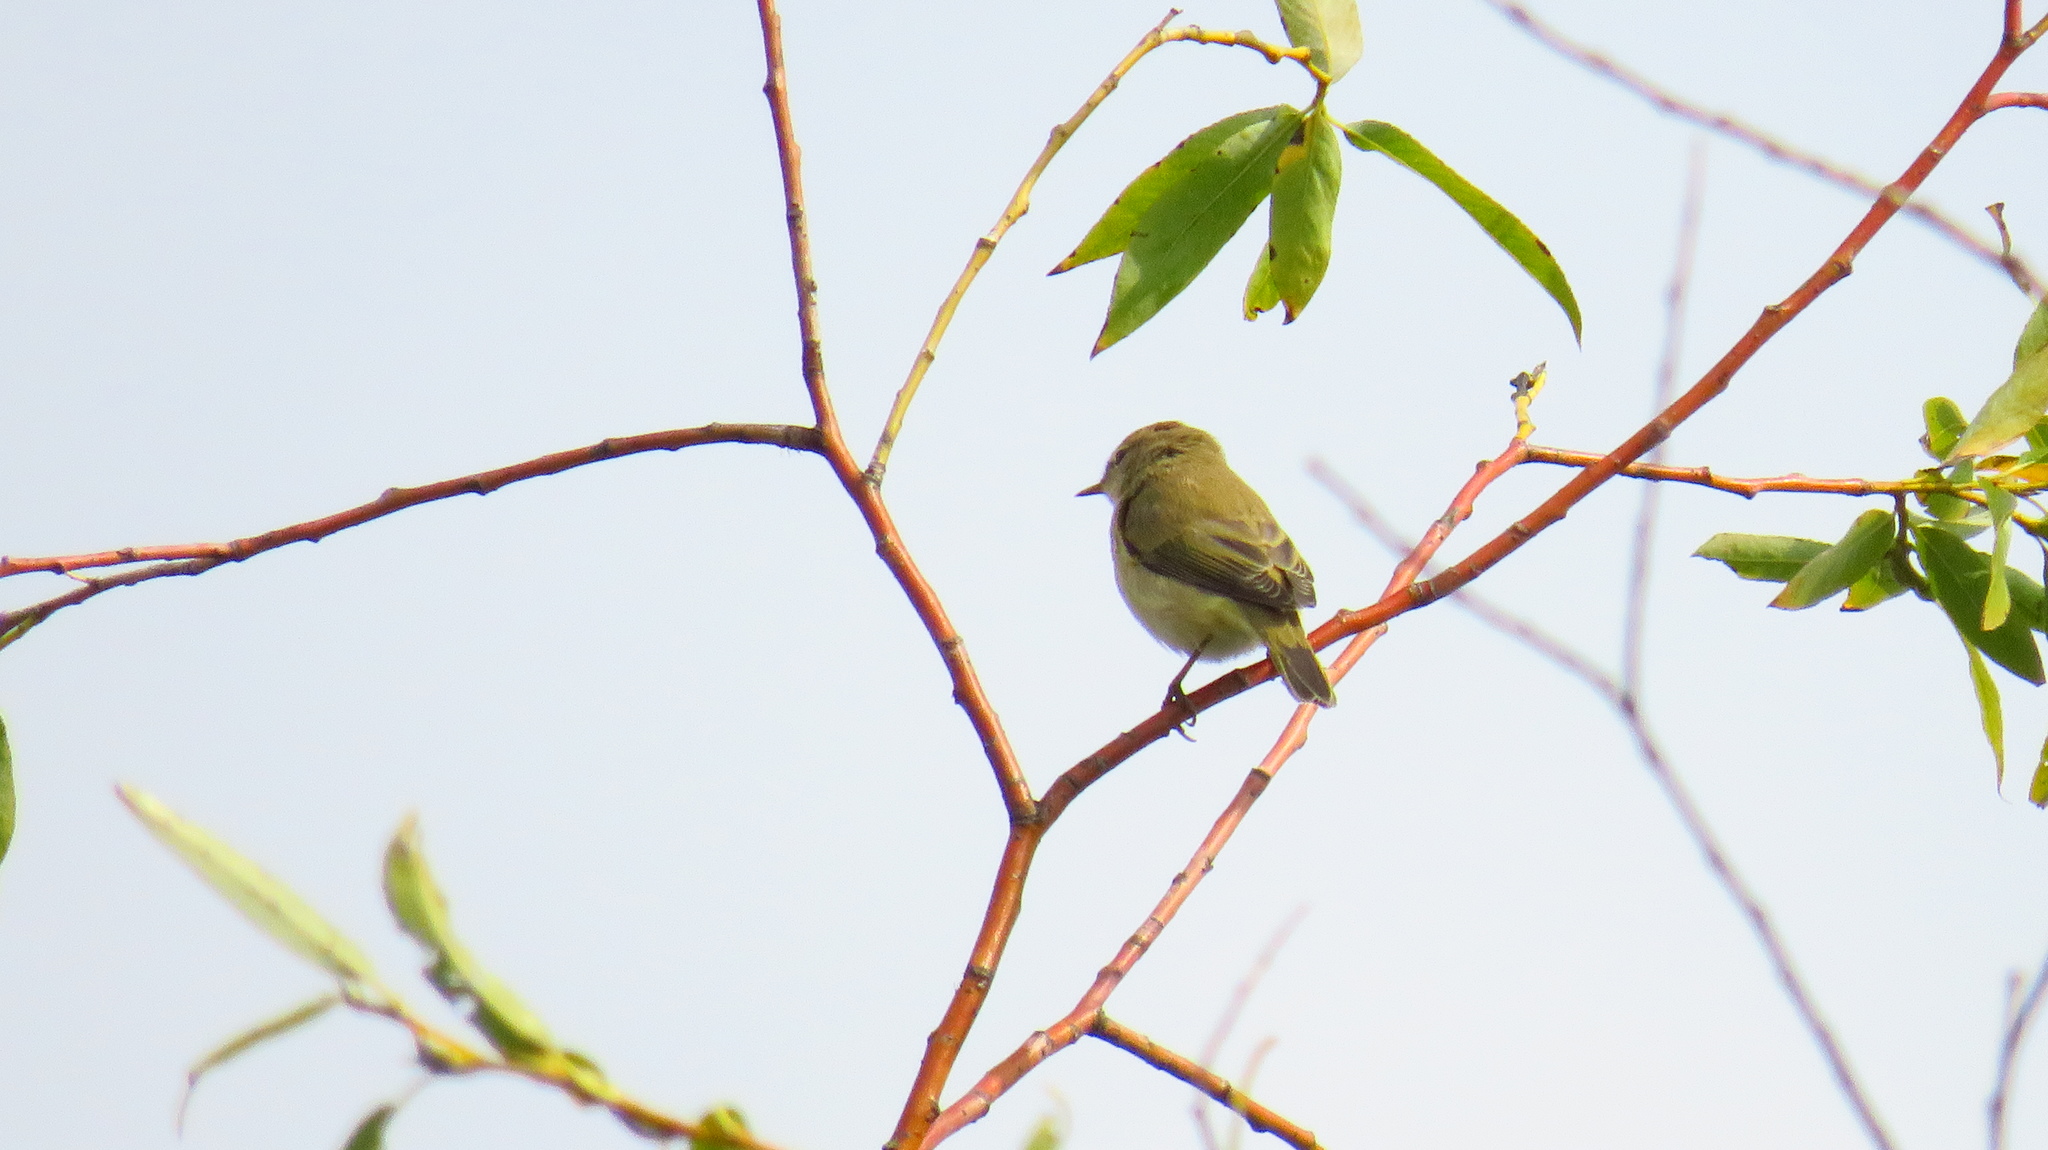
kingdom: Animalia
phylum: Chordata
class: Aves
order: Passeriformes
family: Phylloscopidae
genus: Phylloscopus
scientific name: Phylloscopus trochilus
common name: Willow warbler
